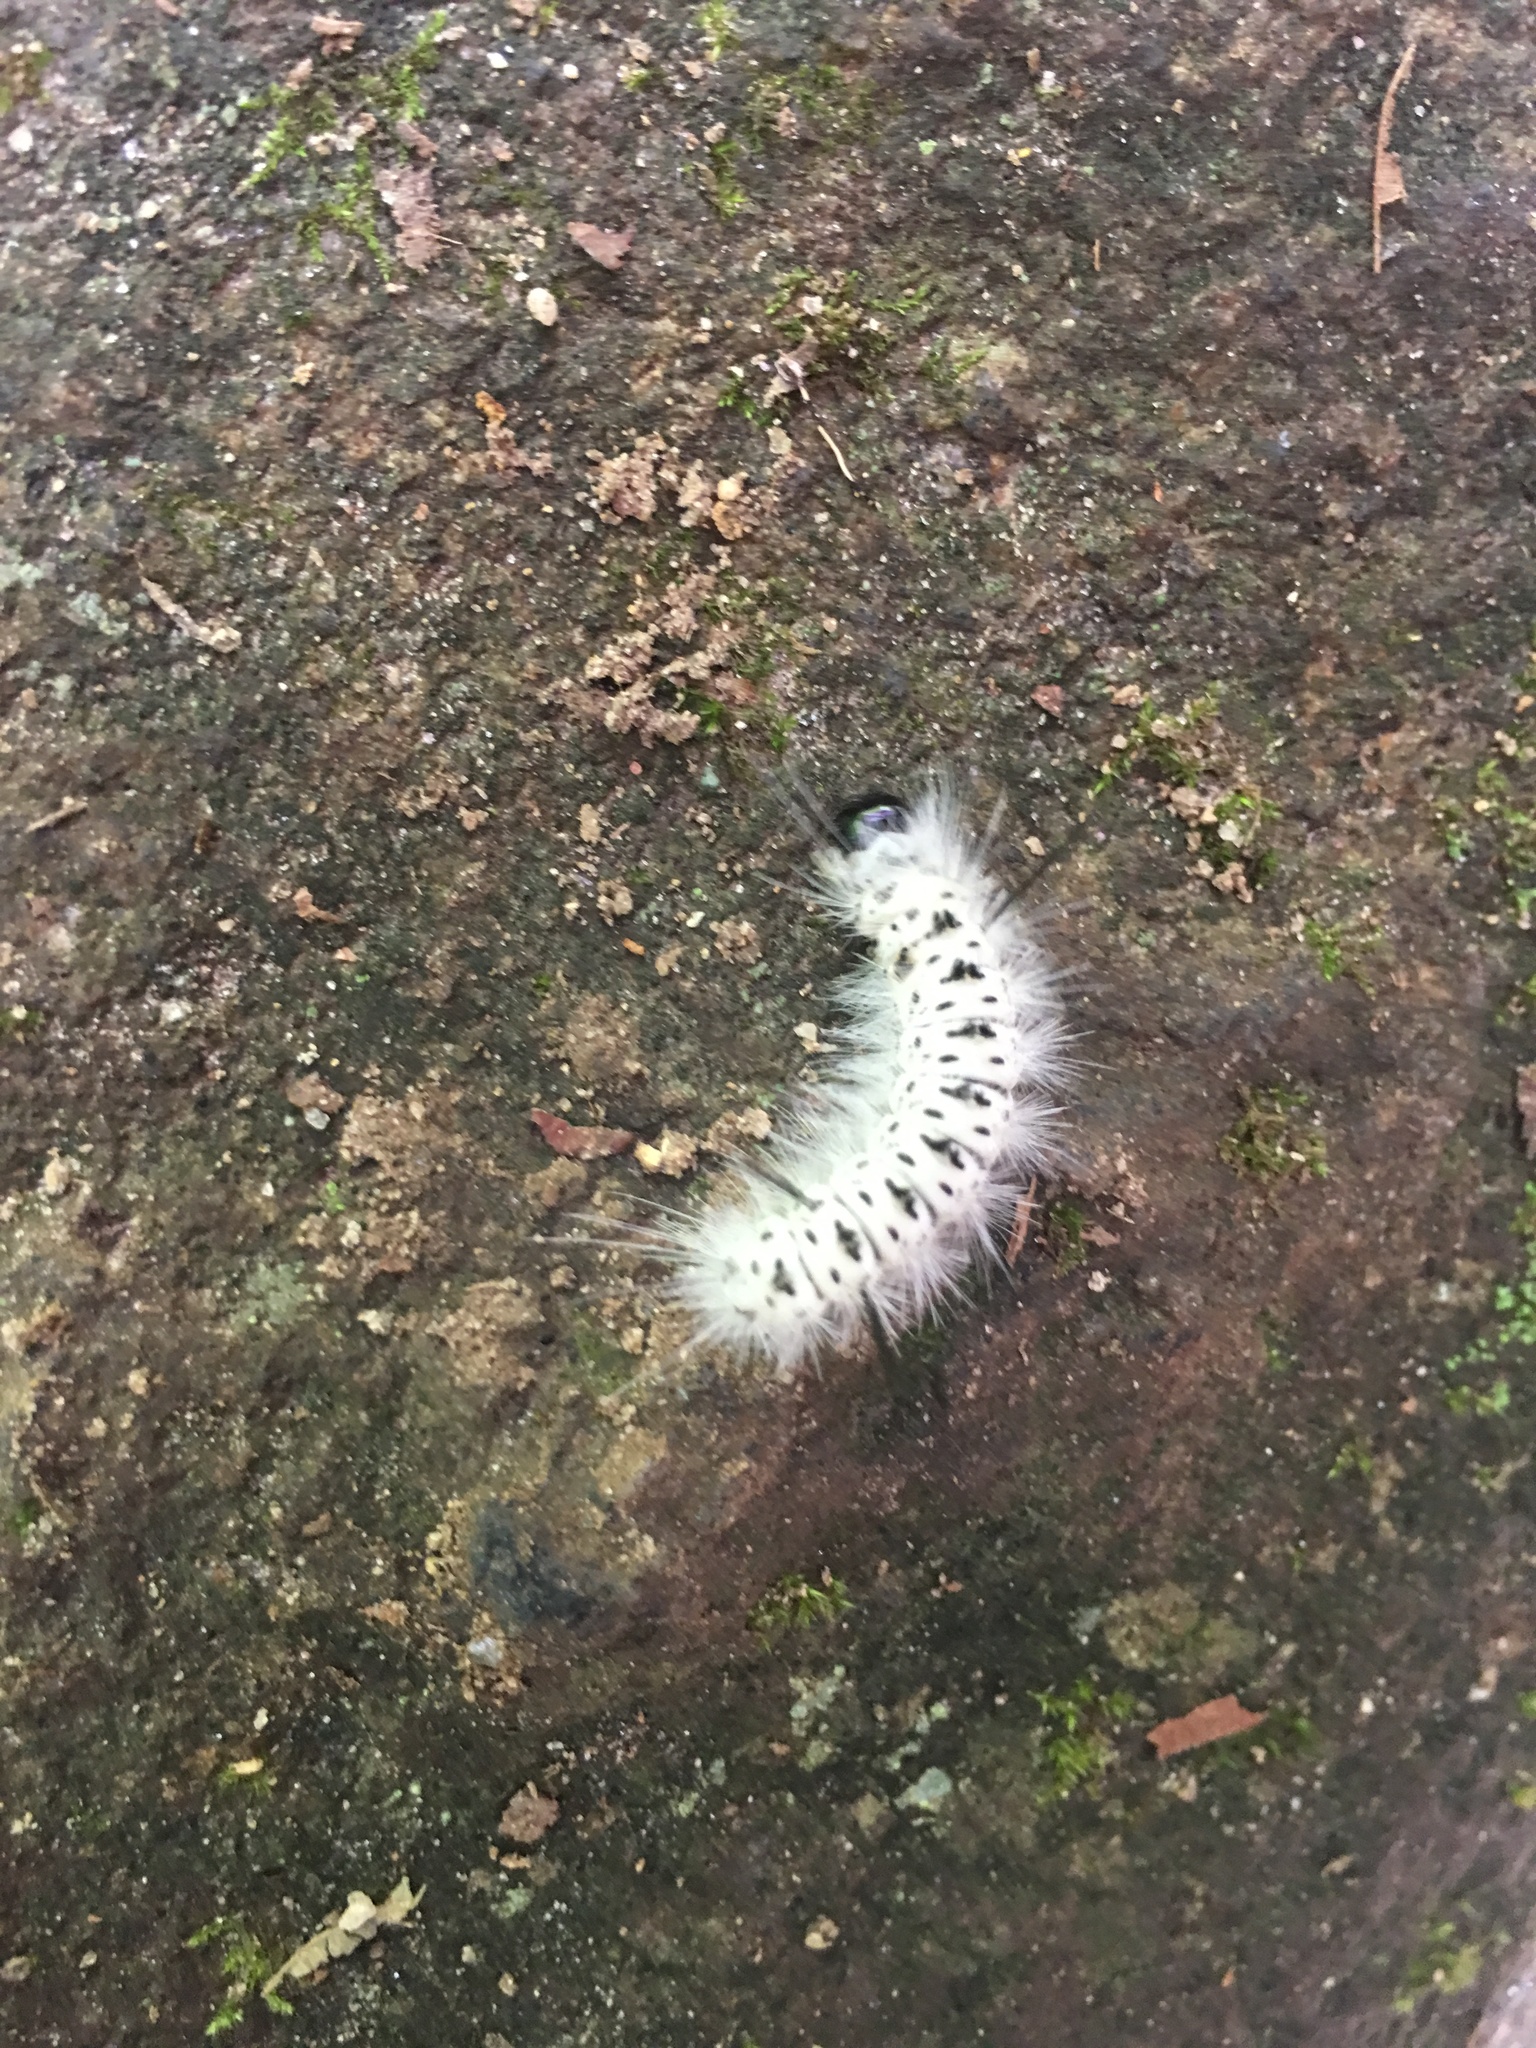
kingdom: Animalia
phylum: Arthropoda
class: Insecta
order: Lepidoptera
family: Erebidae
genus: Lophocampa
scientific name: Lophocampa caryae
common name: Hickory tussock moth
